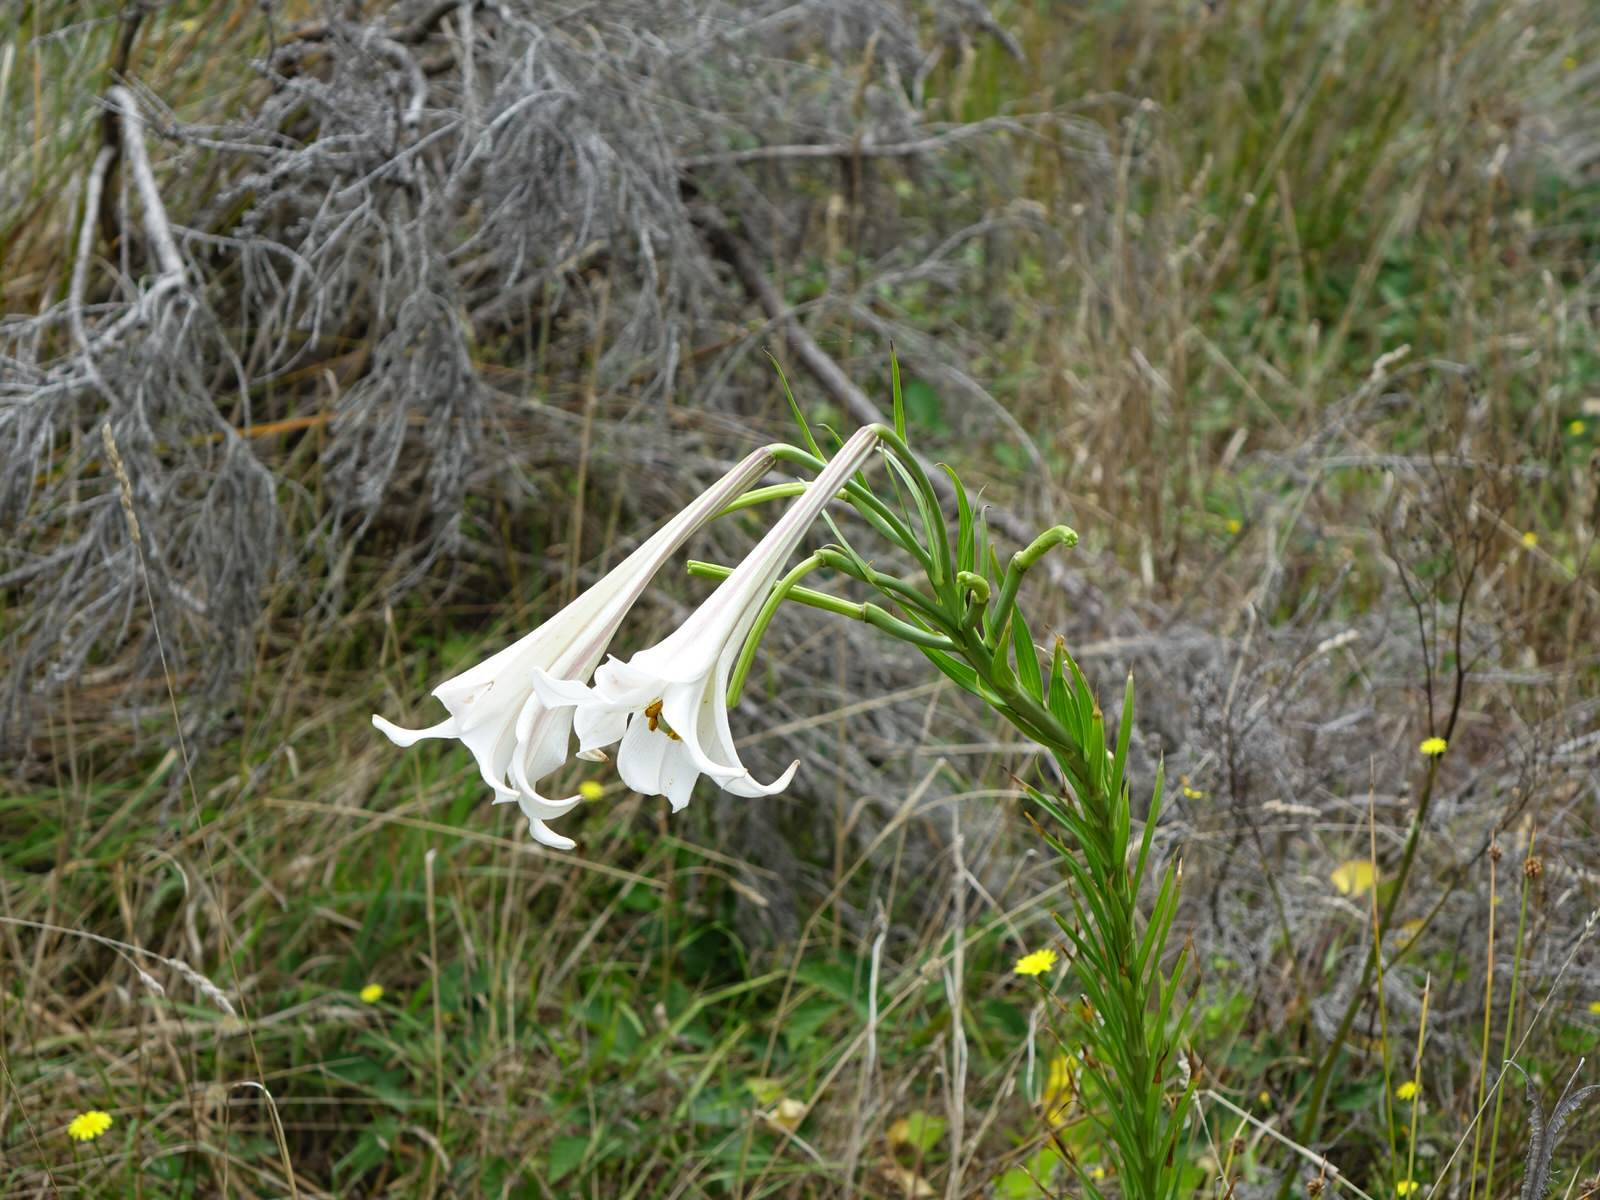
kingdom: Plantae
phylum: Tracheophyta
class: Liliopsida
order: Liliales
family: Liliaceae
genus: Lilium
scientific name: Lilium formosanum
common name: Formosa lily
